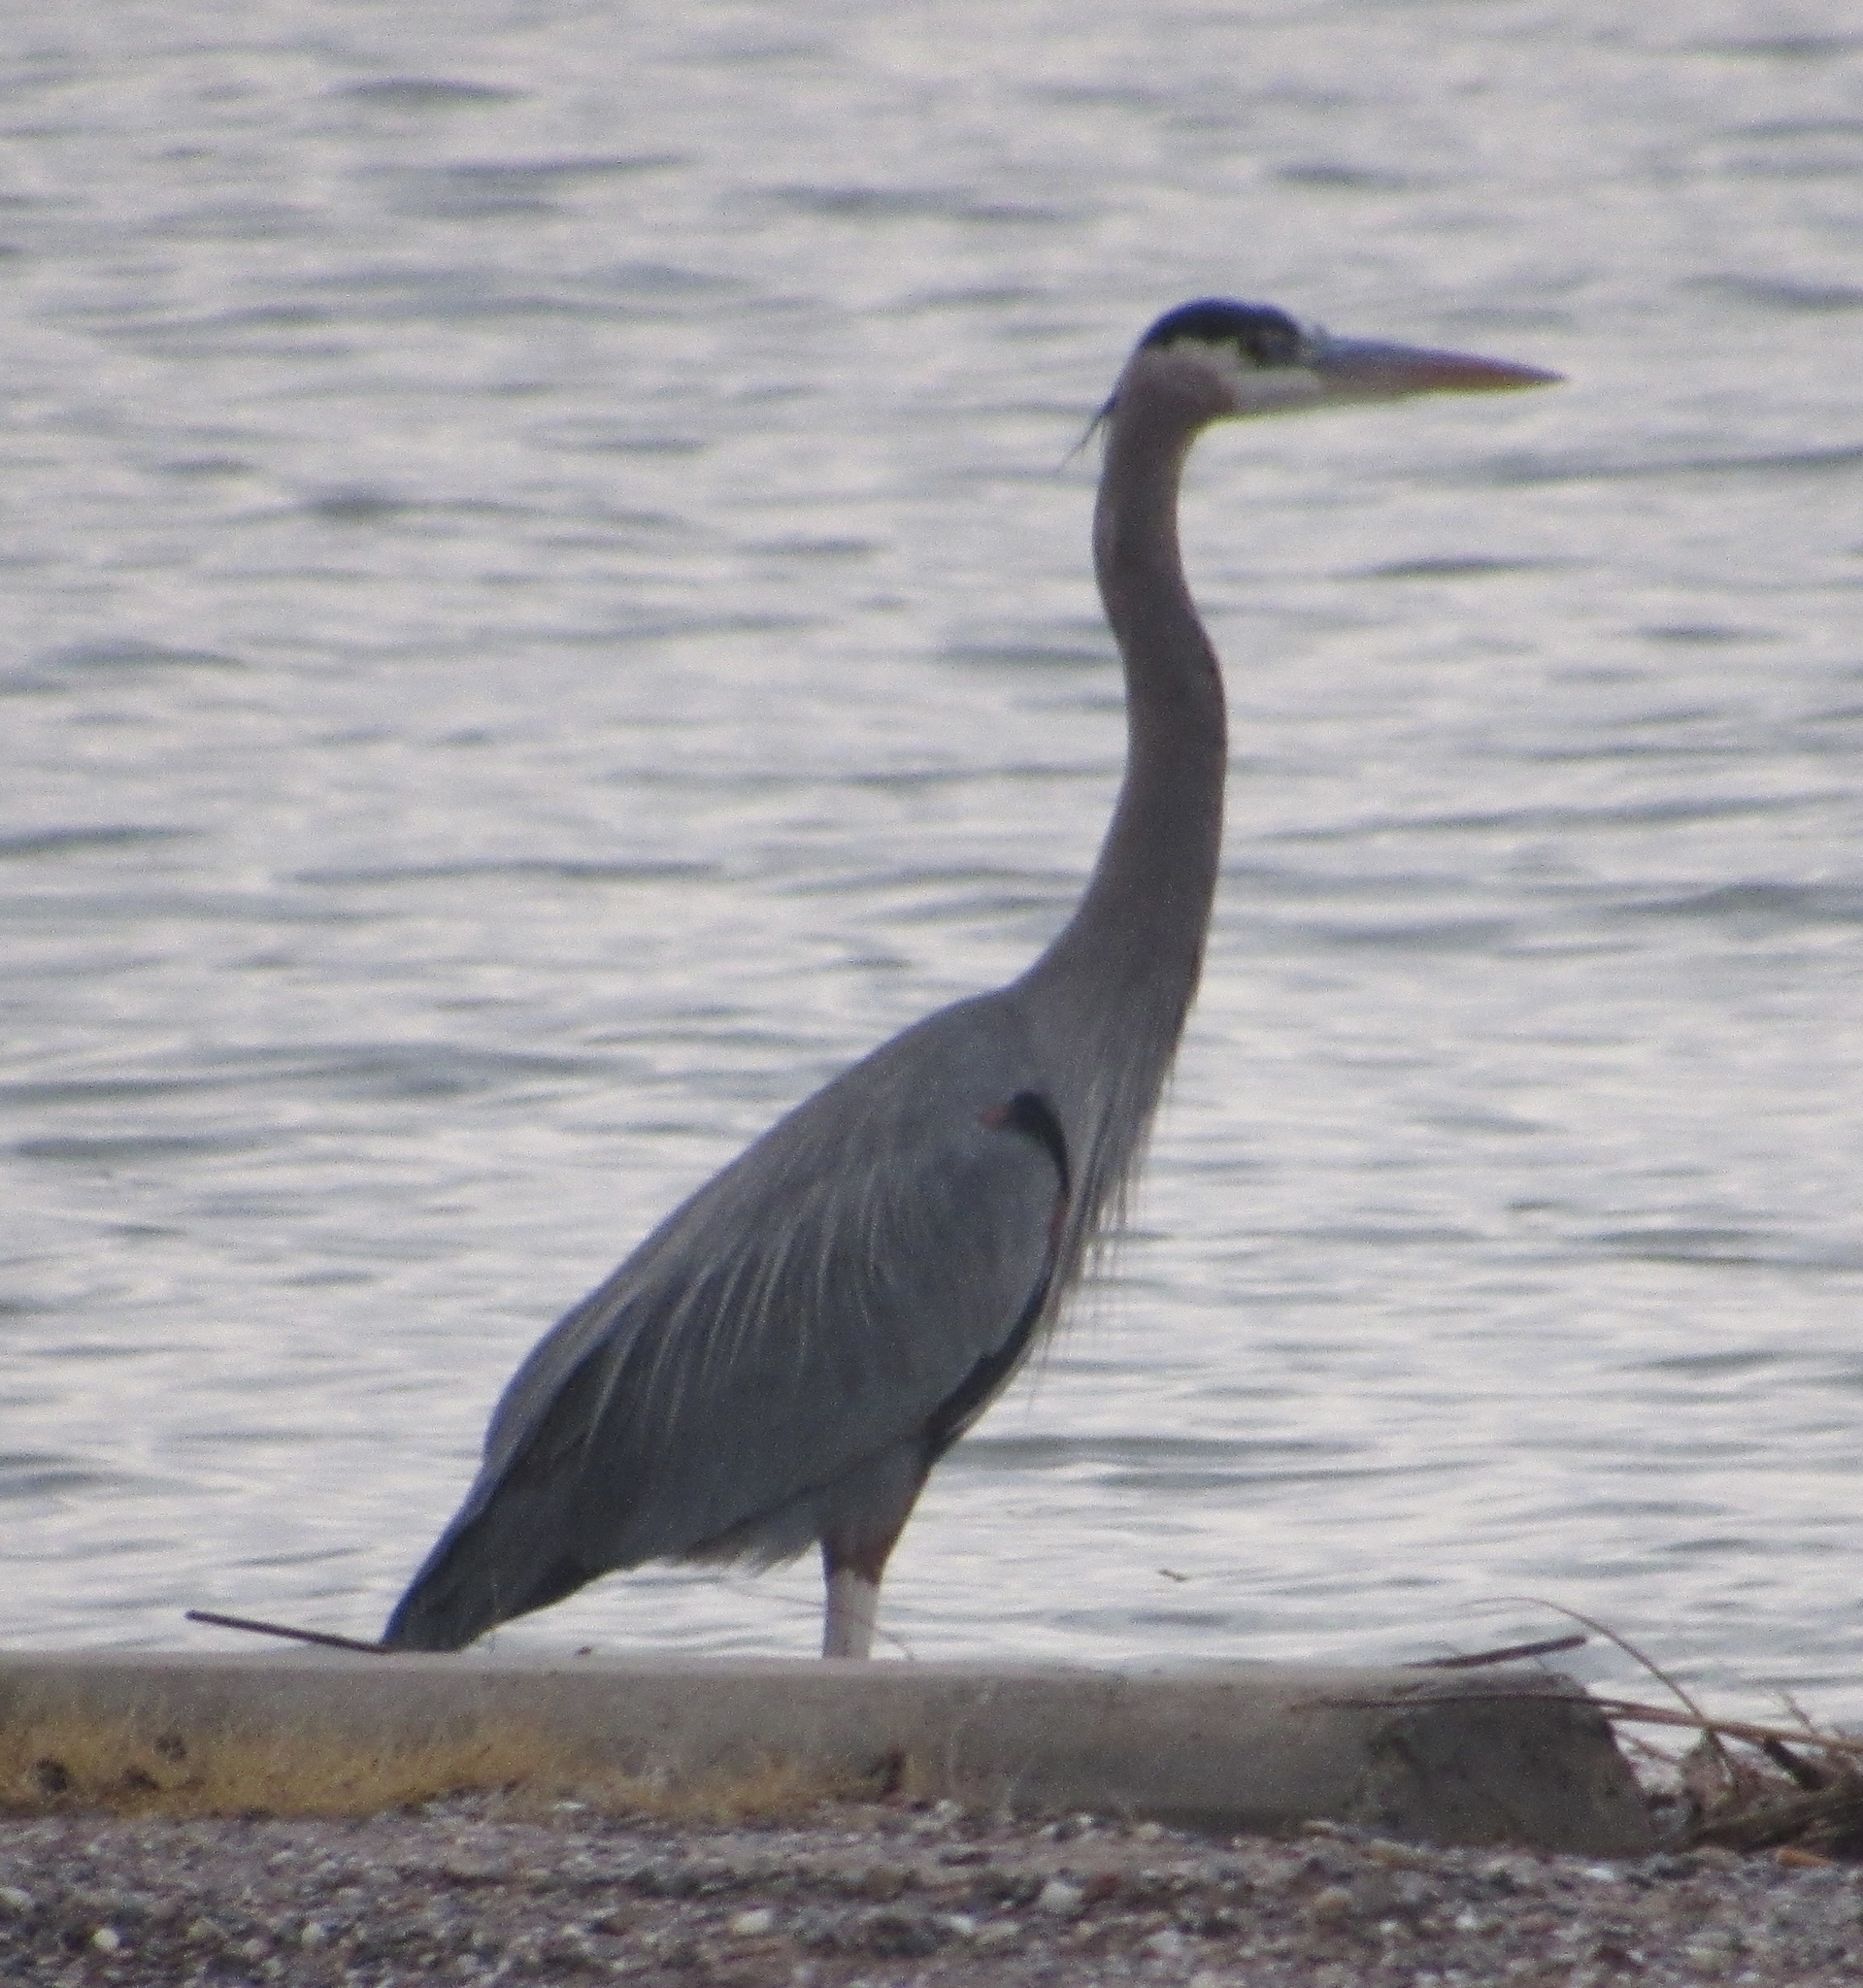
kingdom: Animalia
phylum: Chordata
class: Aves
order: Pelecaniformes
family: Ardeidae
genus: Ardea
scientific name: Ardea herodias
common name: Great blue heron
